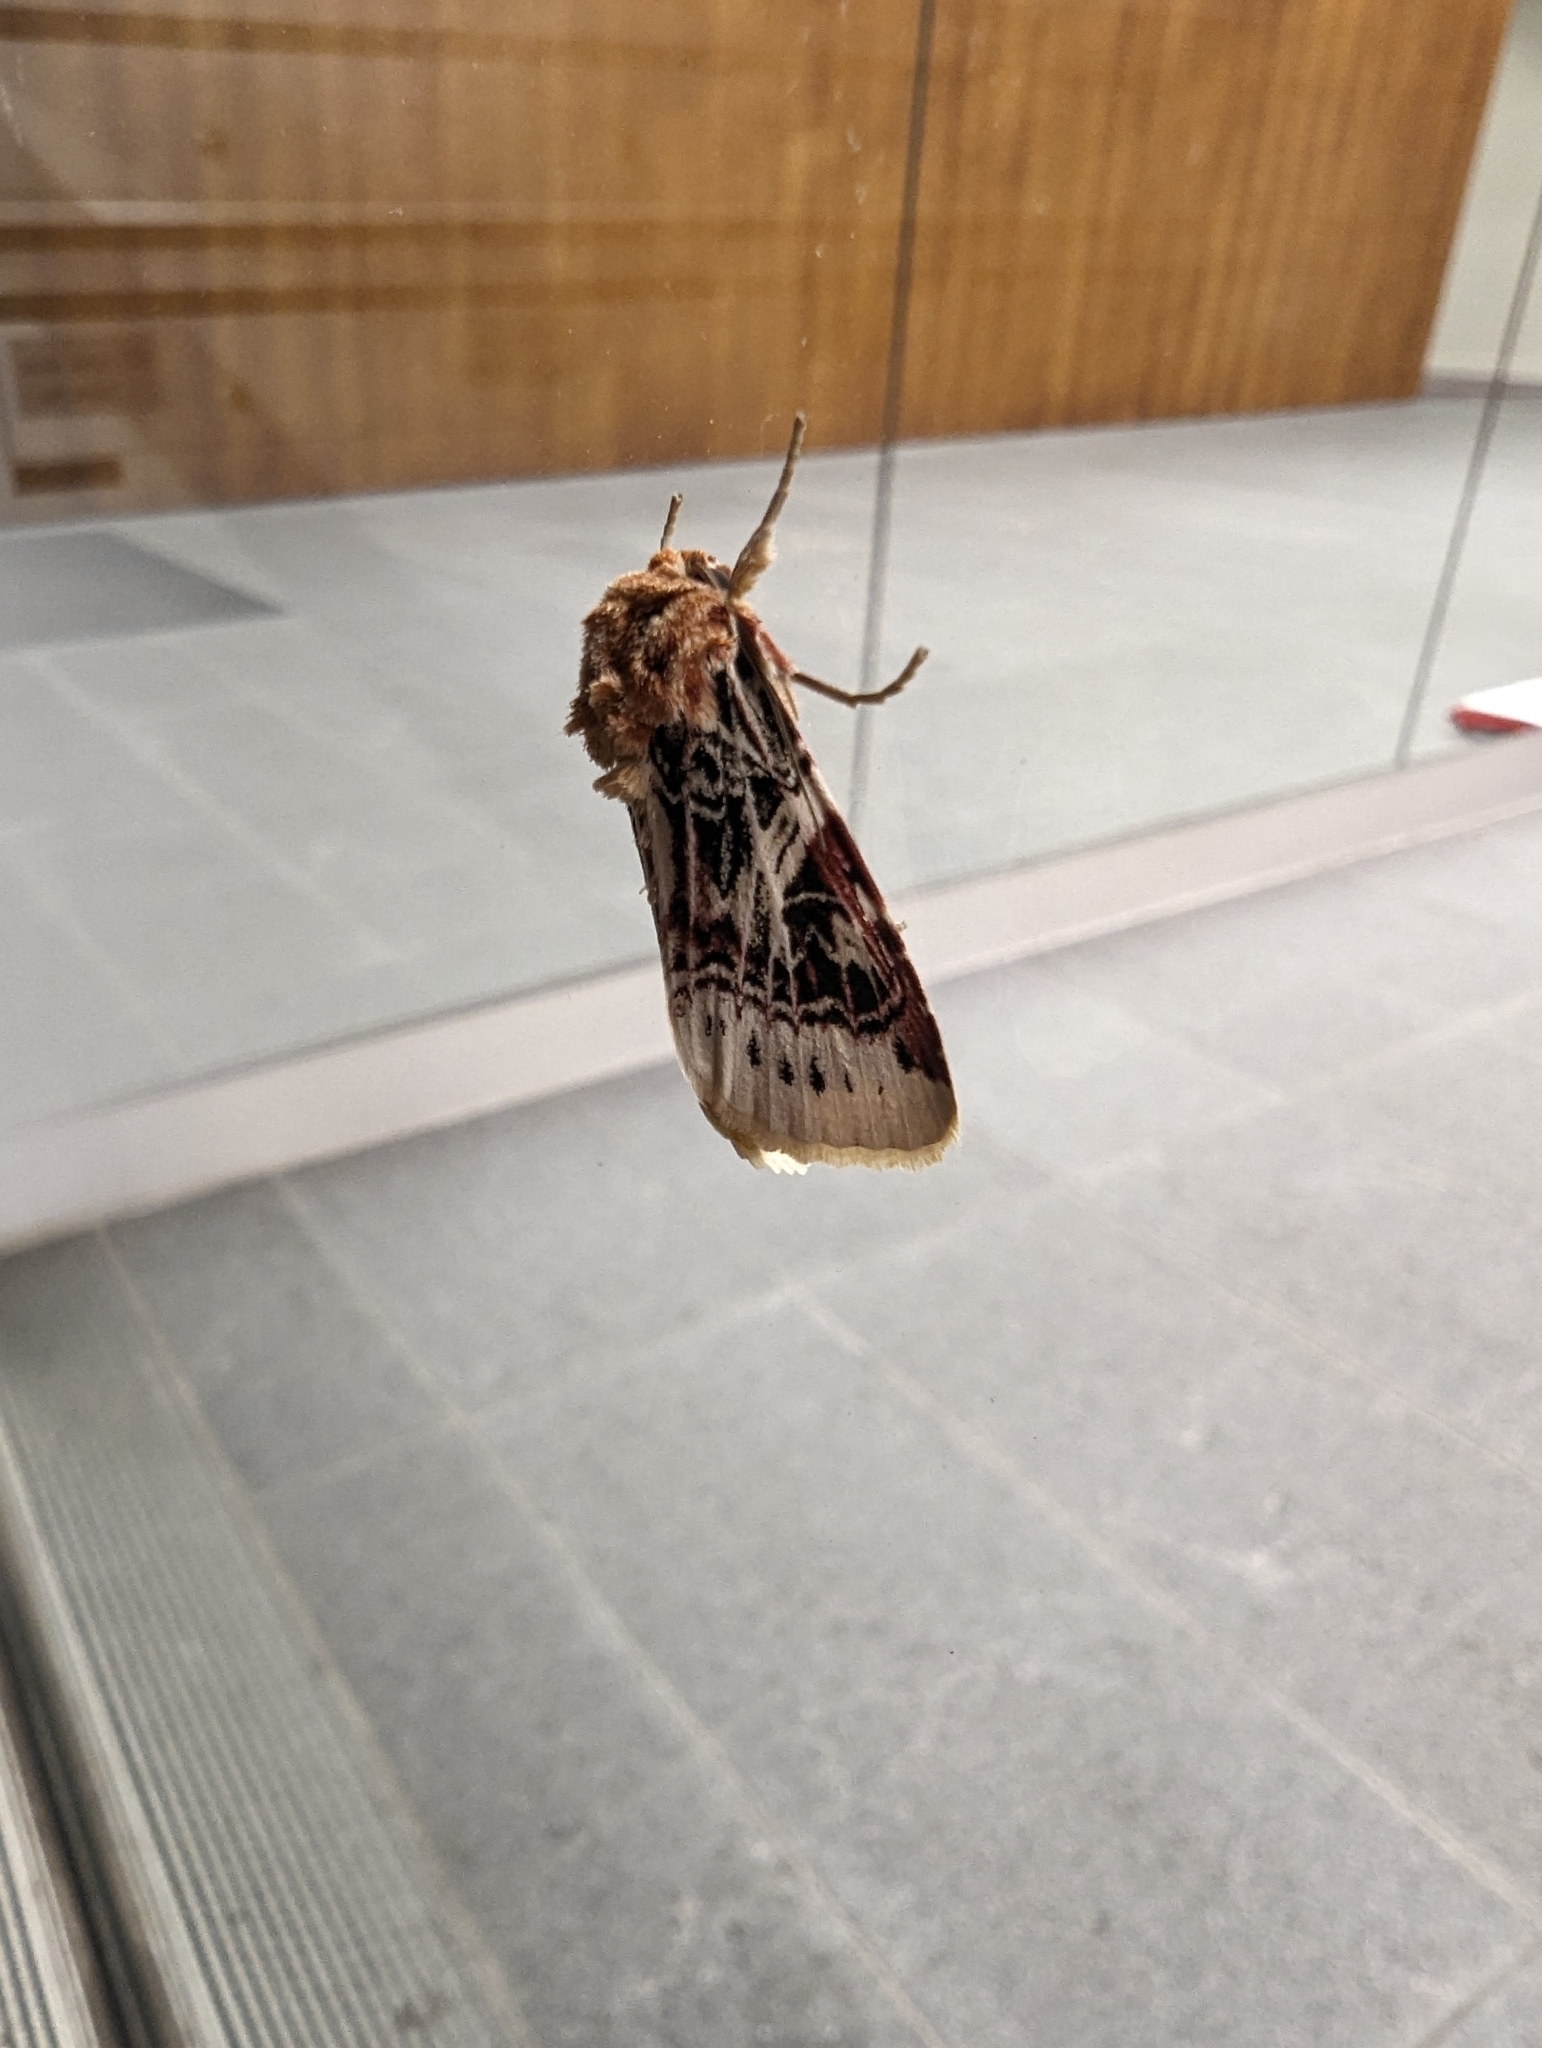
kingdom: Animalia
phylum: Arthropoda
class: Insecta
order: Lepidoptera
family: Noctuidae
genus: Spodoptera
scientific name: Spodoptera picta
